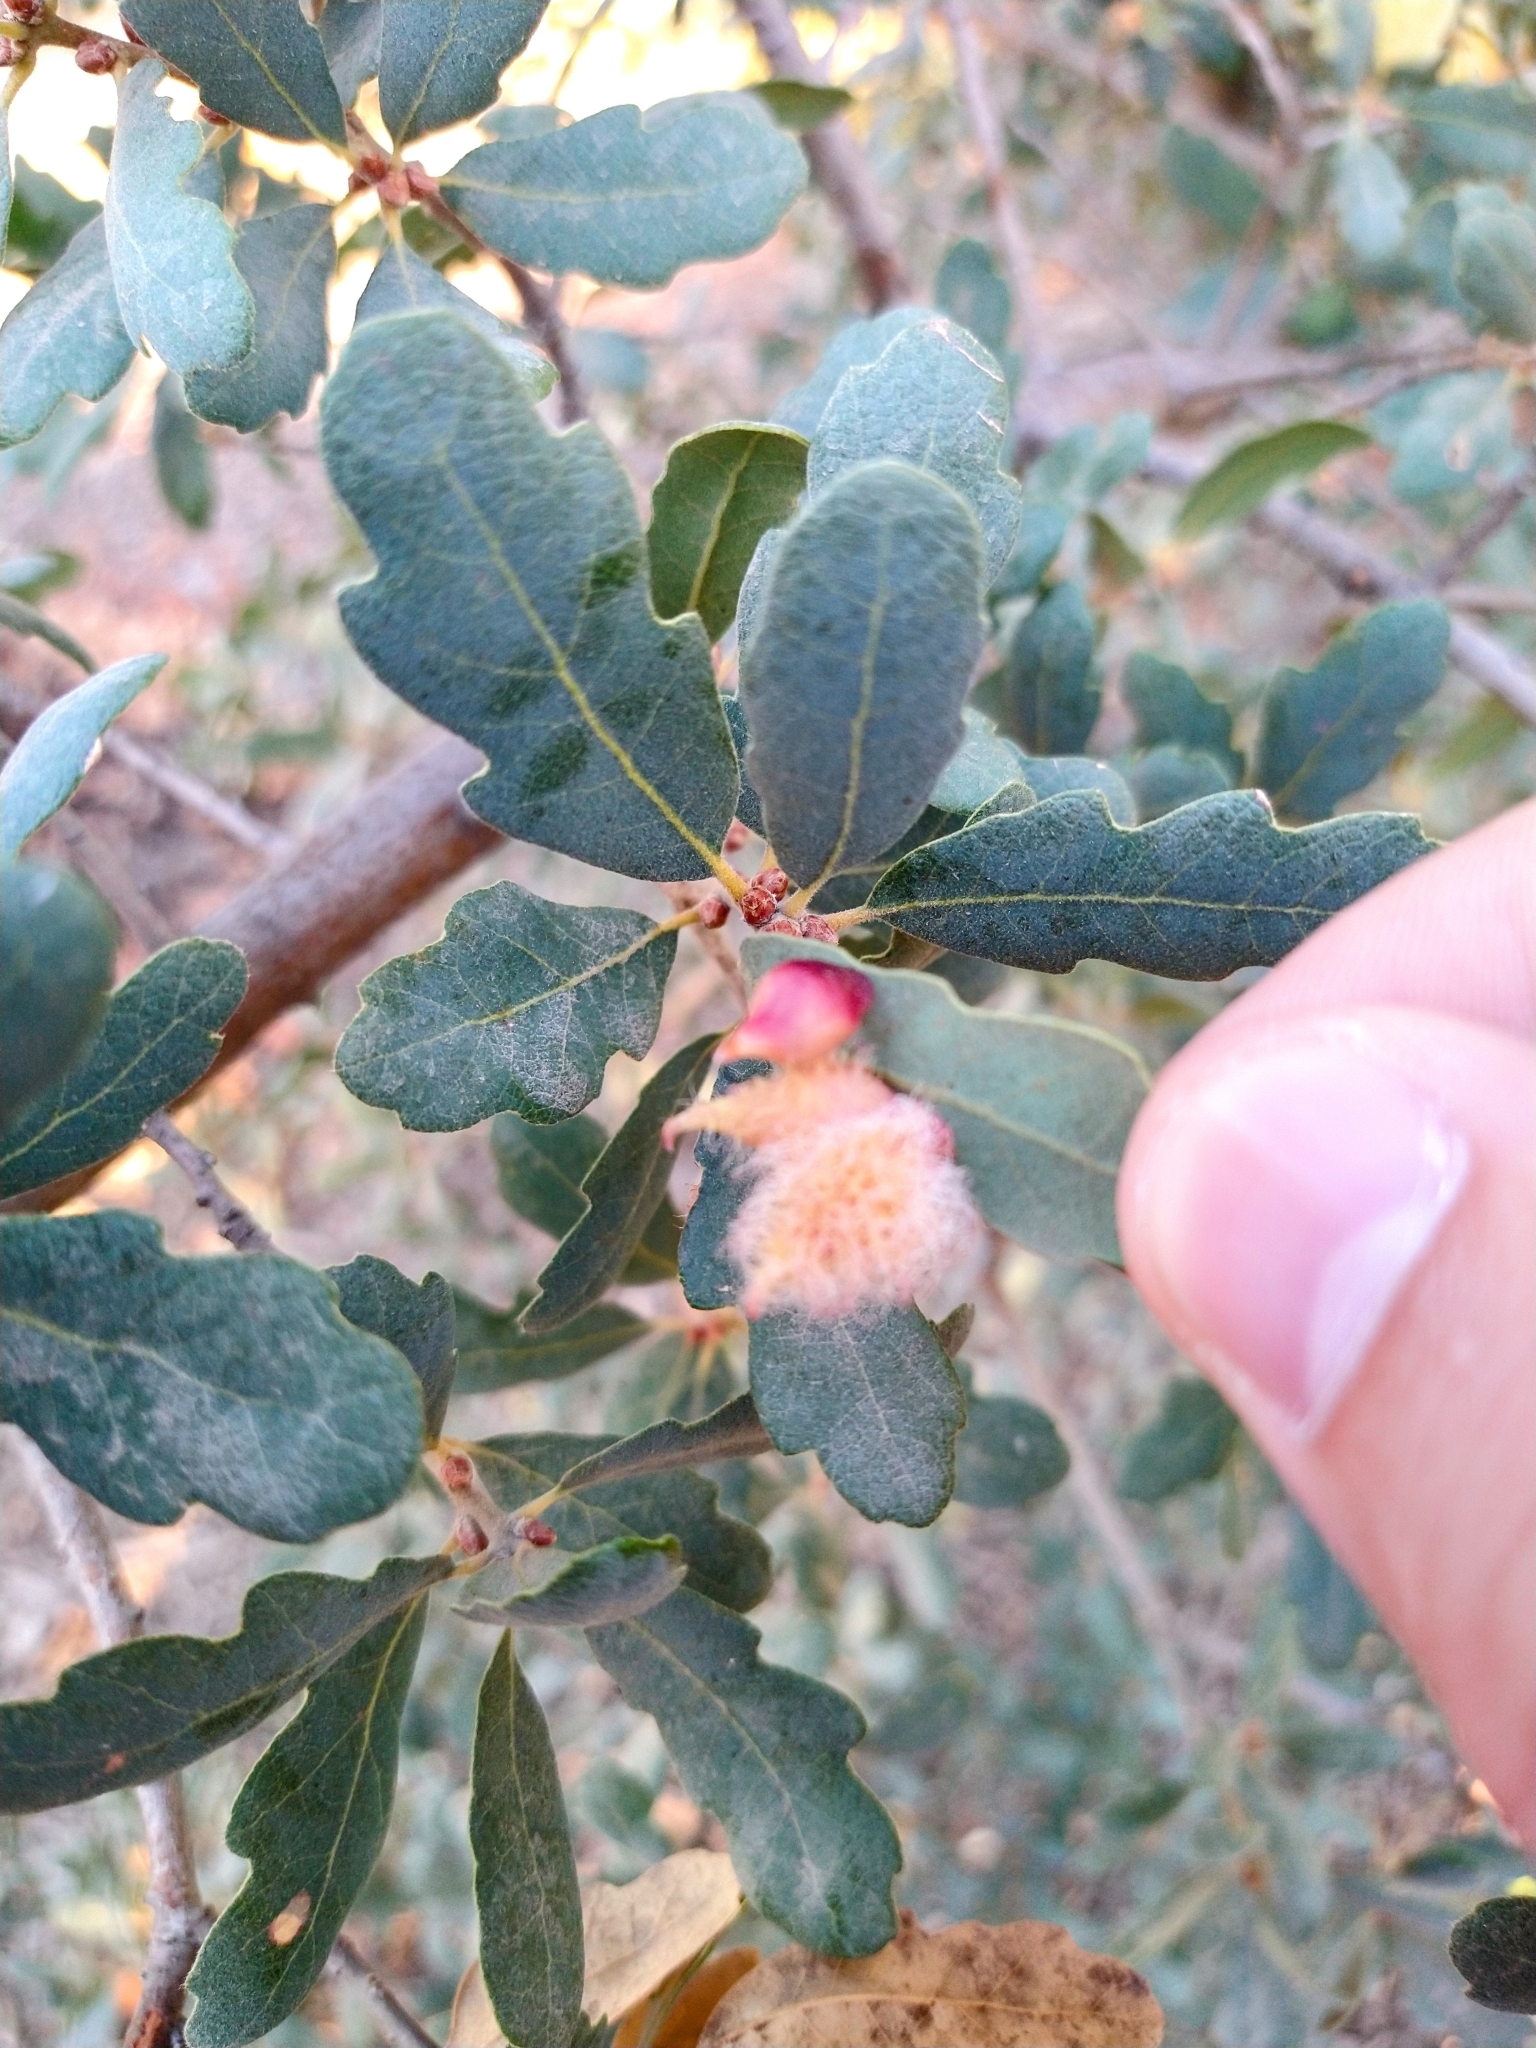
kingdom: Animalia
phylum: Arthropoda
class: Insecta
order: Hymenoptera
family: Cynipidae
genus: Andricus
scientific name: Andricus
